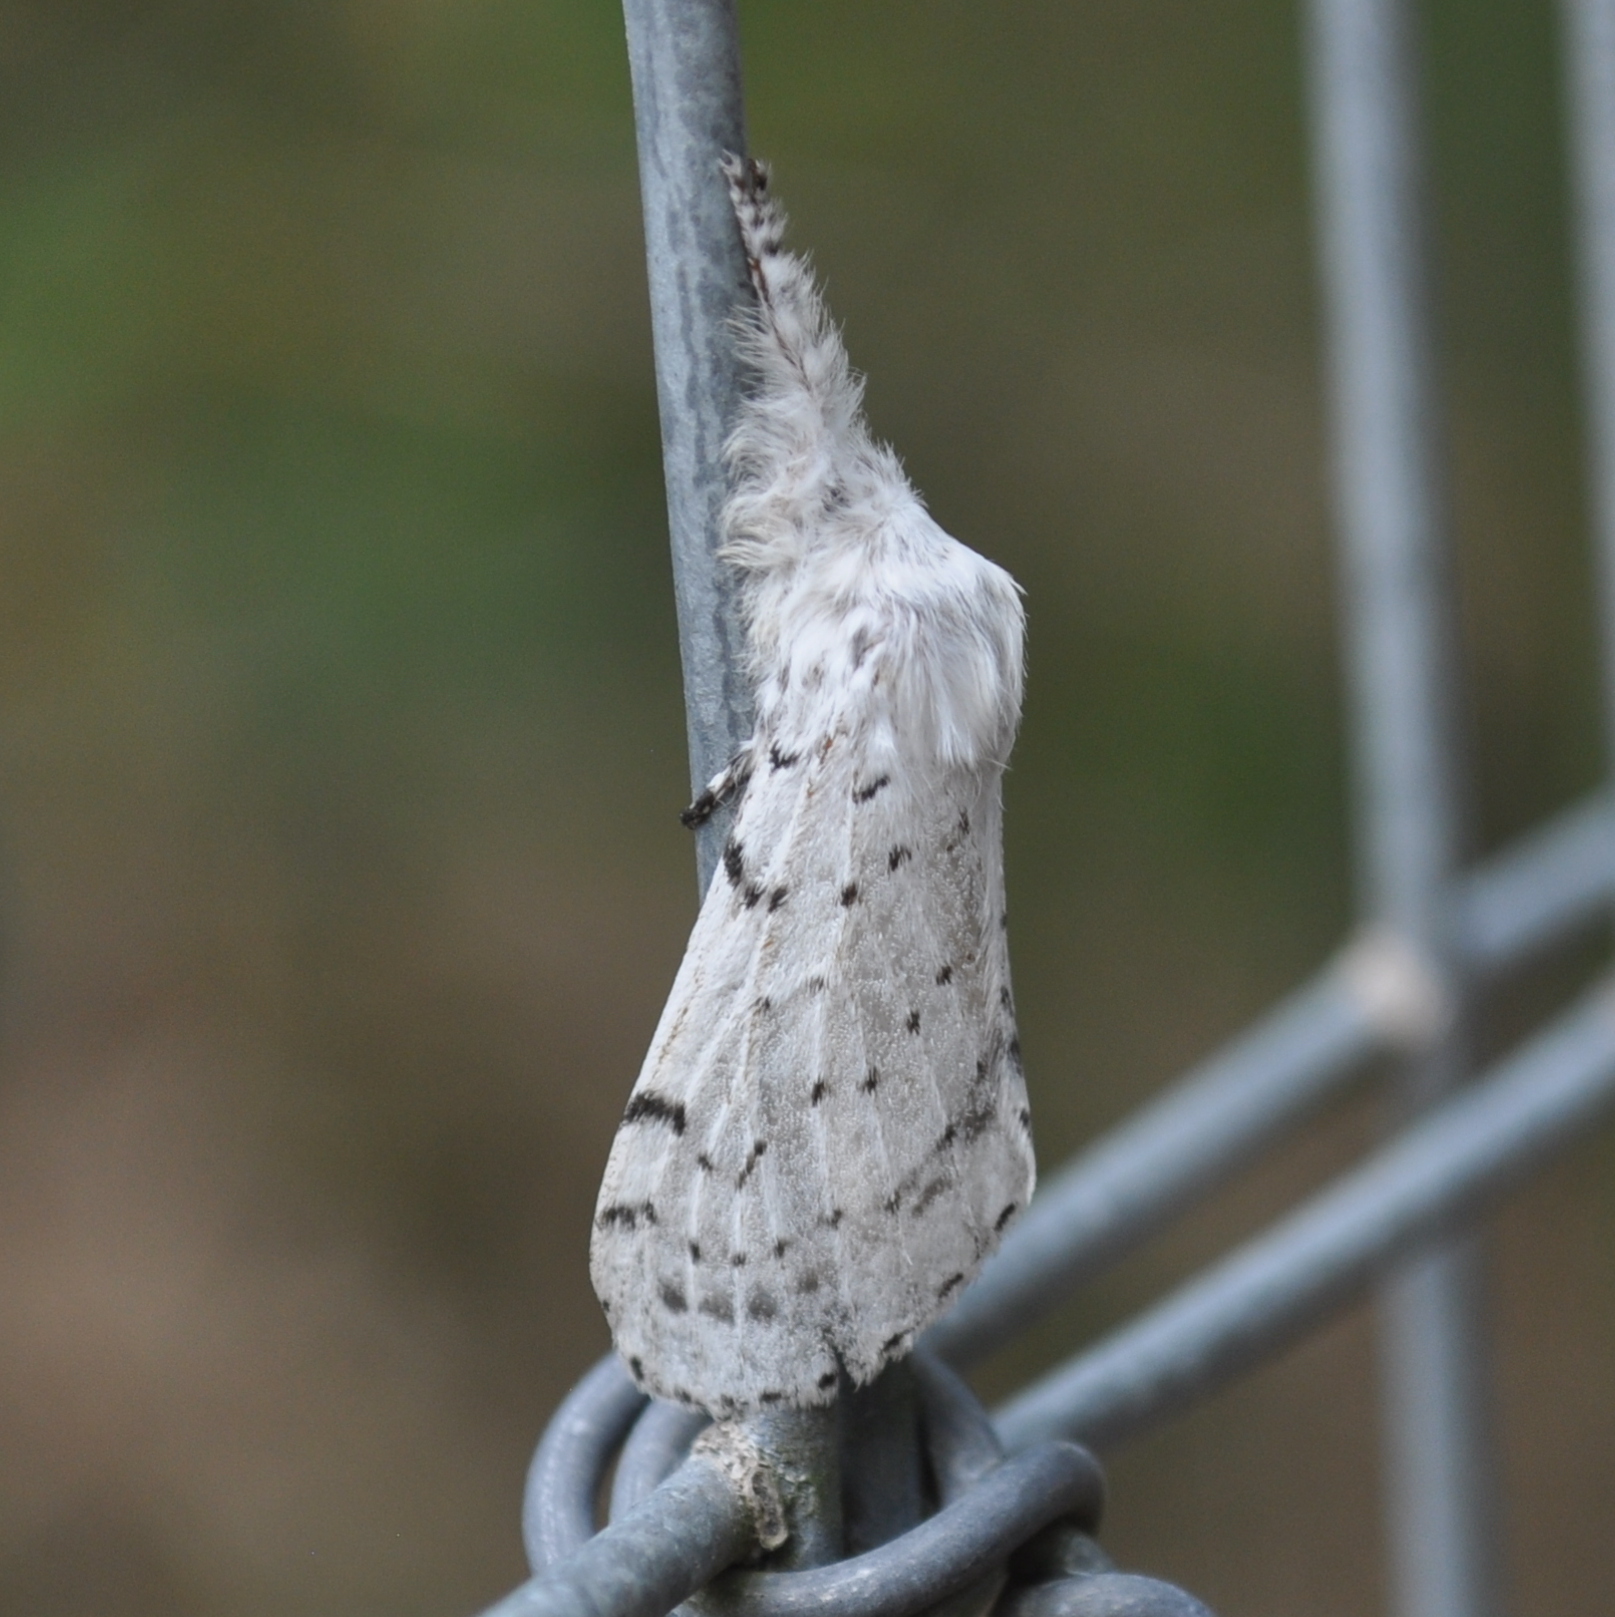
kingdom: Animalia
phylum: Arthropoda
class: Insecta
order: Lepidoptera
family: Lasiocampidae
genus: Artace
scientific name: Artace cribrarius
